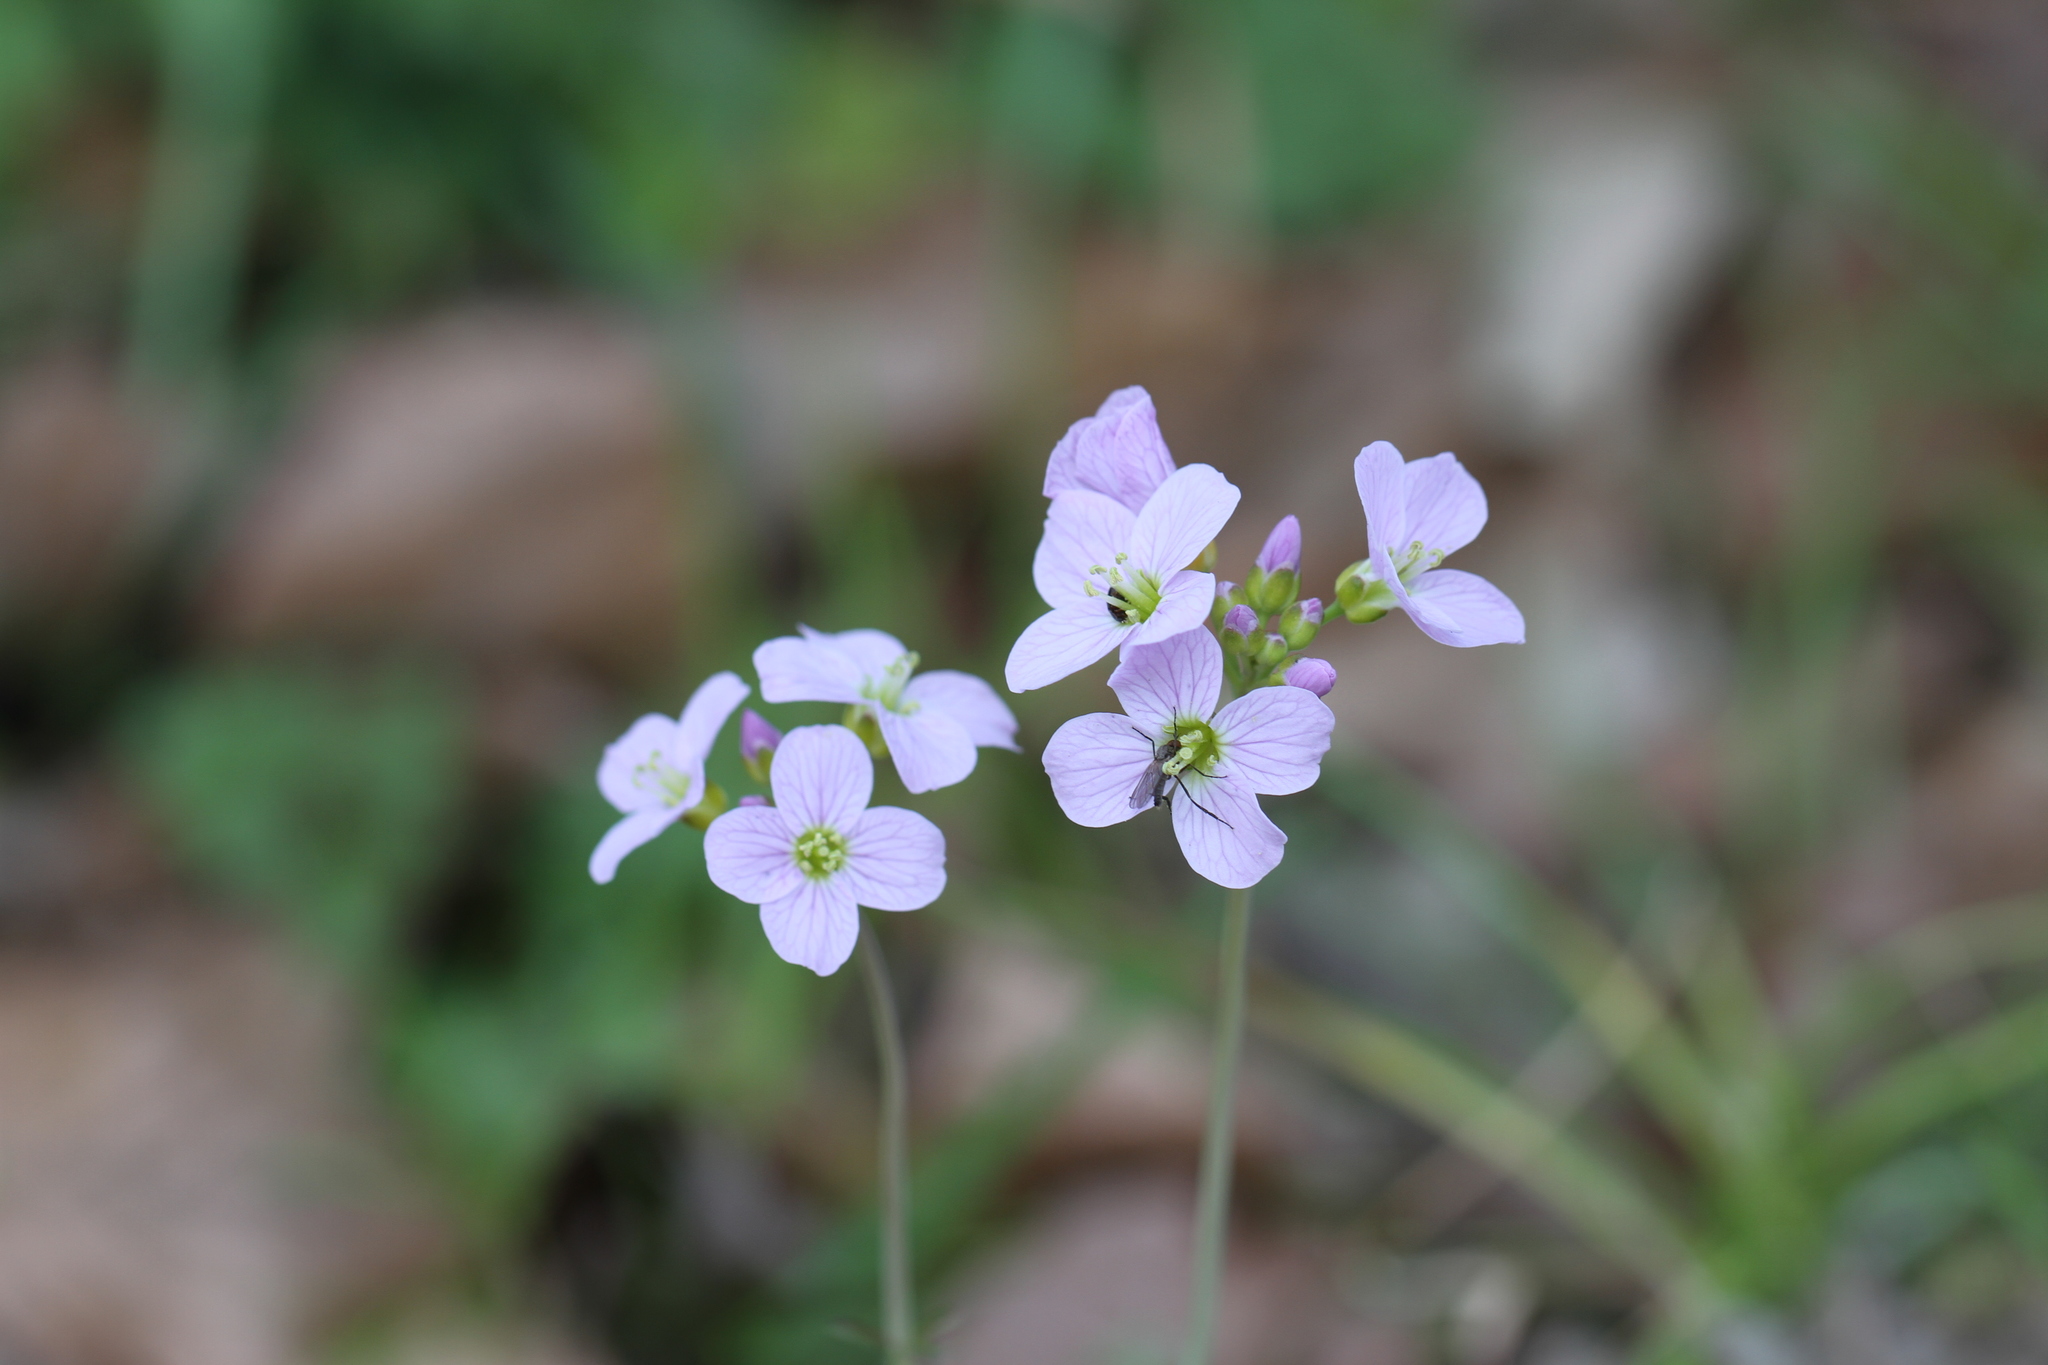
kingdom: Plantae
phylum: Tracheophyta
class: Magnoliopsida
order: Brassicales
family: Brassicaceae
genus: Cardamine
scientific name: Cardamine pratensis
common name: Cuckoo flower
